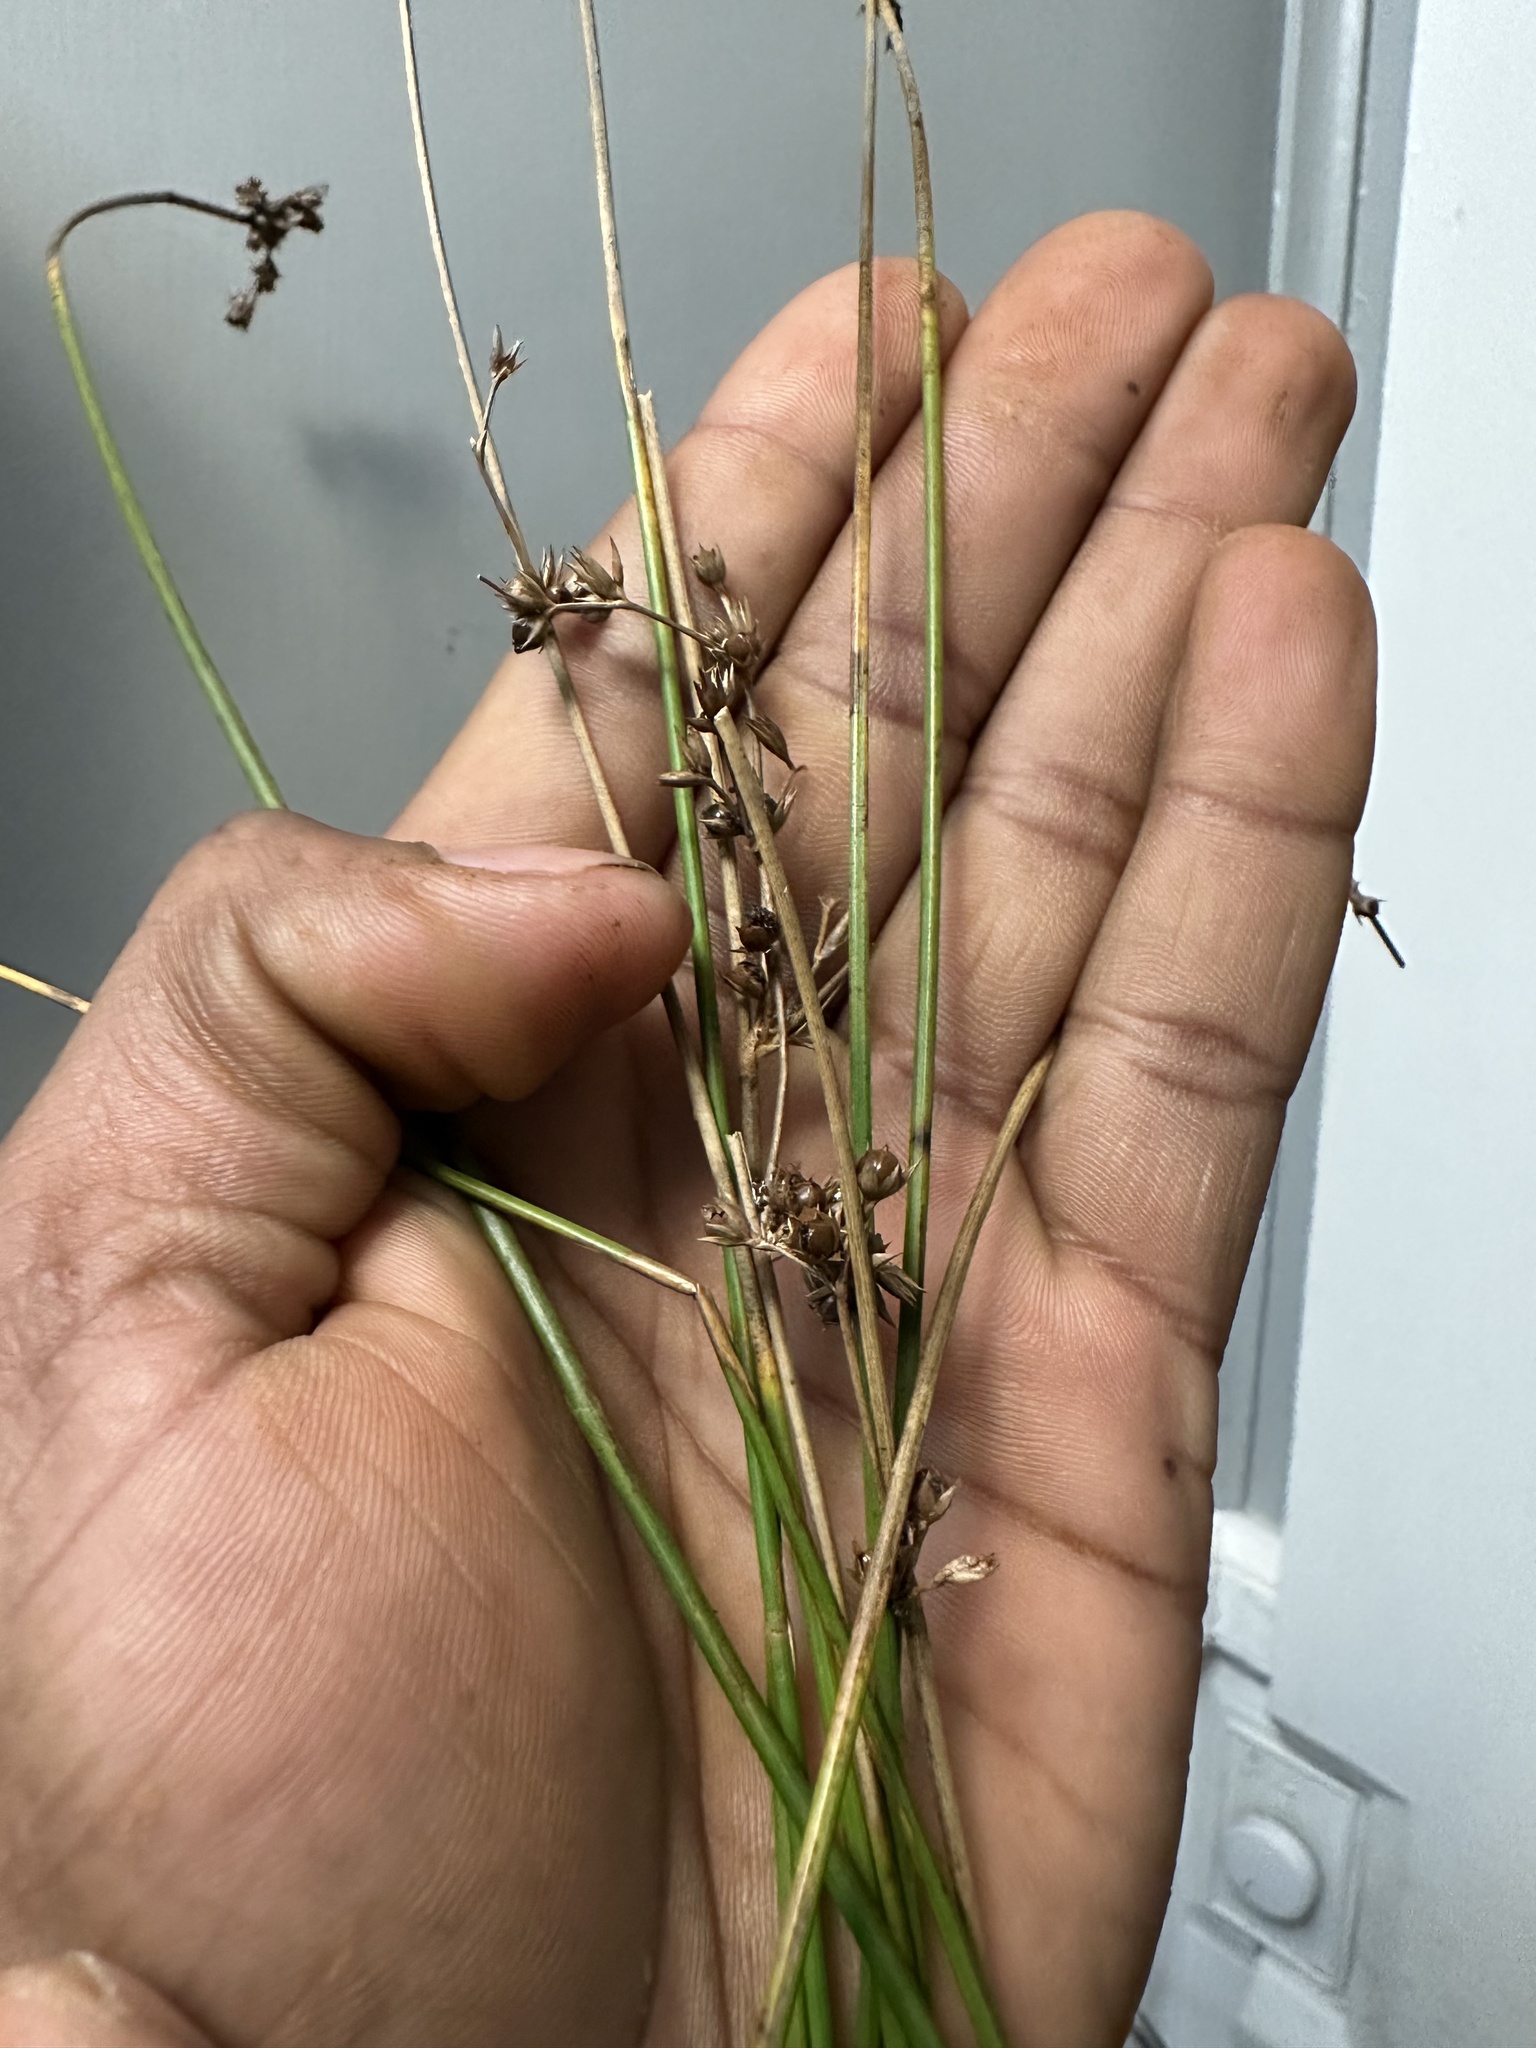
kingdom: Plantae
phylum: Tracheophyta
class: Liliopsida
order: Poales
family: Juncaceae
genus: Juncus
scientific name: Juncus effusus
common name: Soft rush
